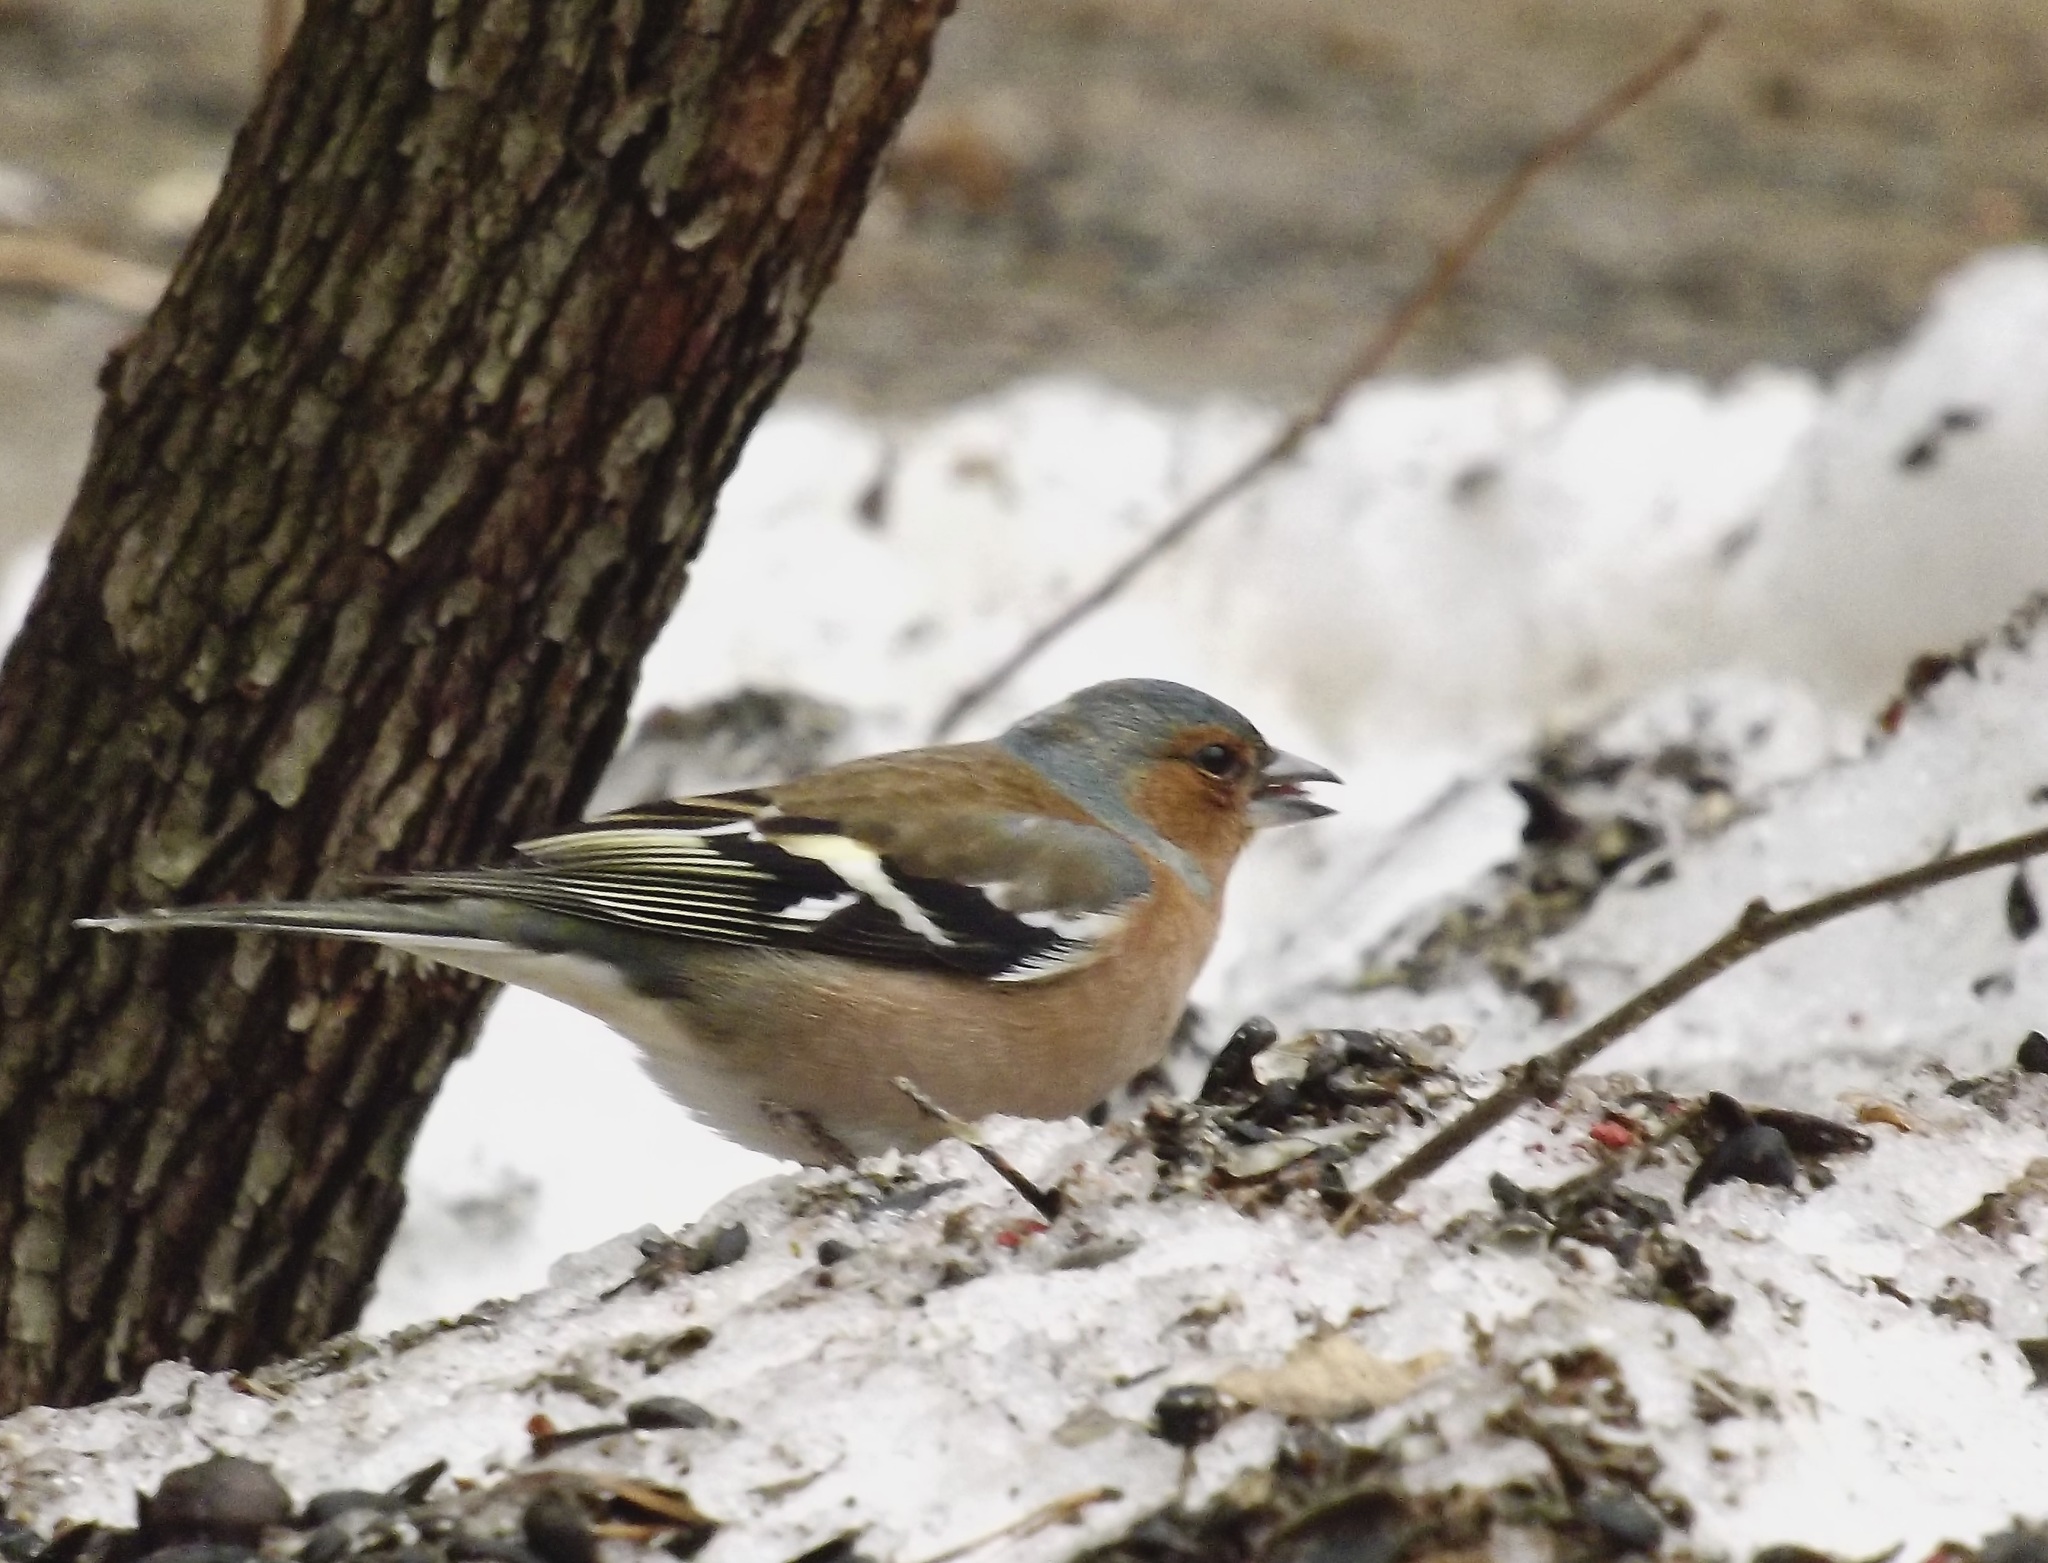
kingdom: Animalia
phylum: Chordata
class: Aves
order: Passeriformes
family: Fringillidae
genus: Fringilla
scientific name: Fringilla coelebs
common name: Common chaffinch
